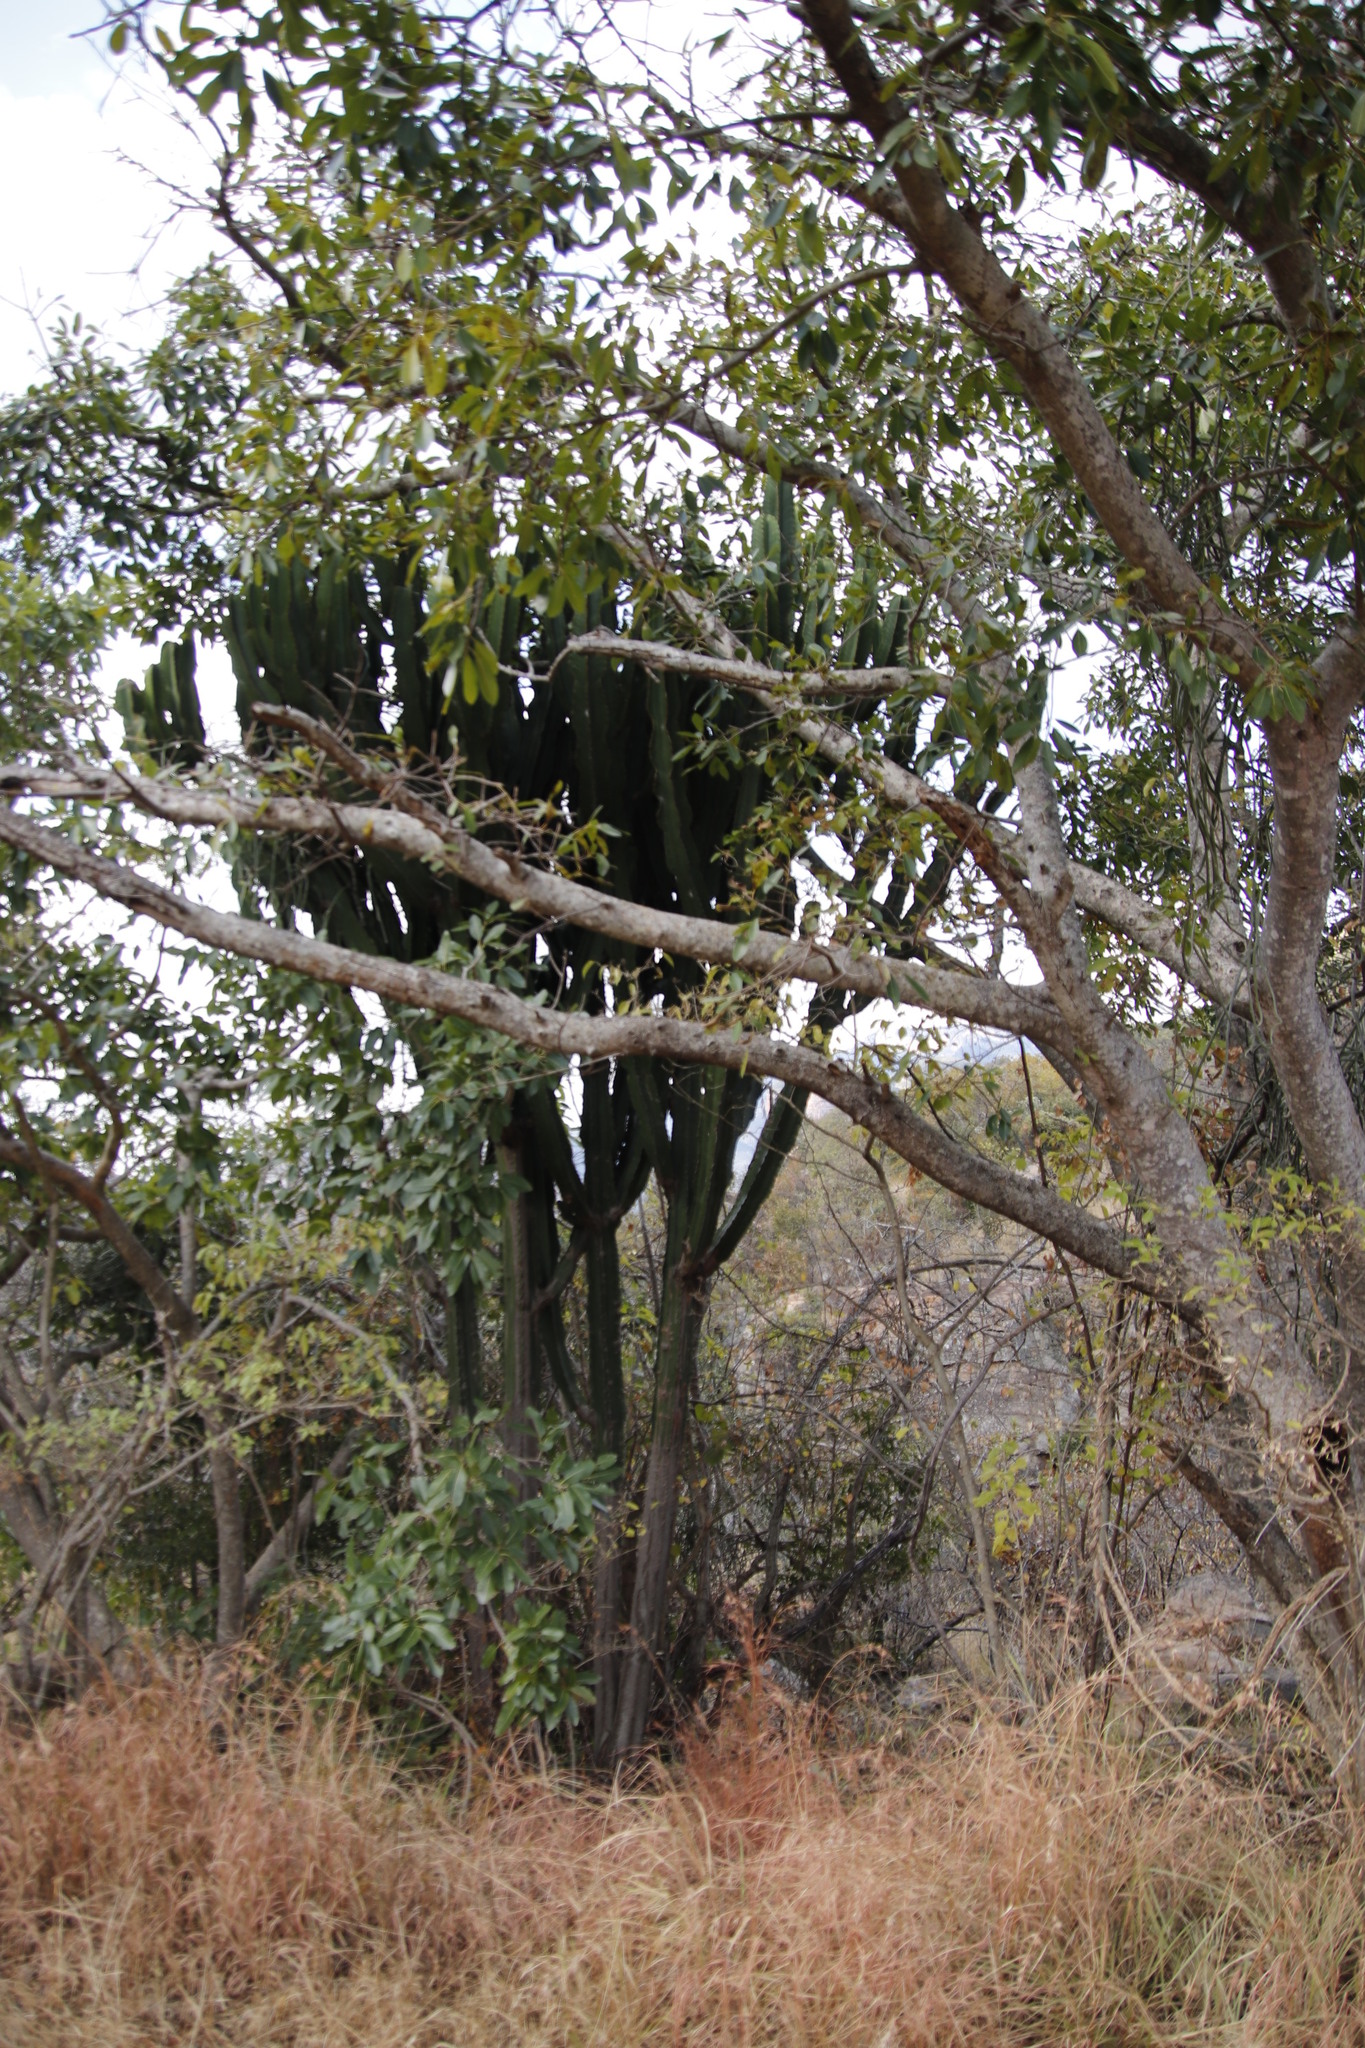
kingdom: Plantae
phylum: Tracheophyta
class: Magnoliopsida
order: Malpighiales
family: Euphorbiaceae
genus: Euphorbia
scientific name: Euphorbia ingens
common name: Cactus spurge
